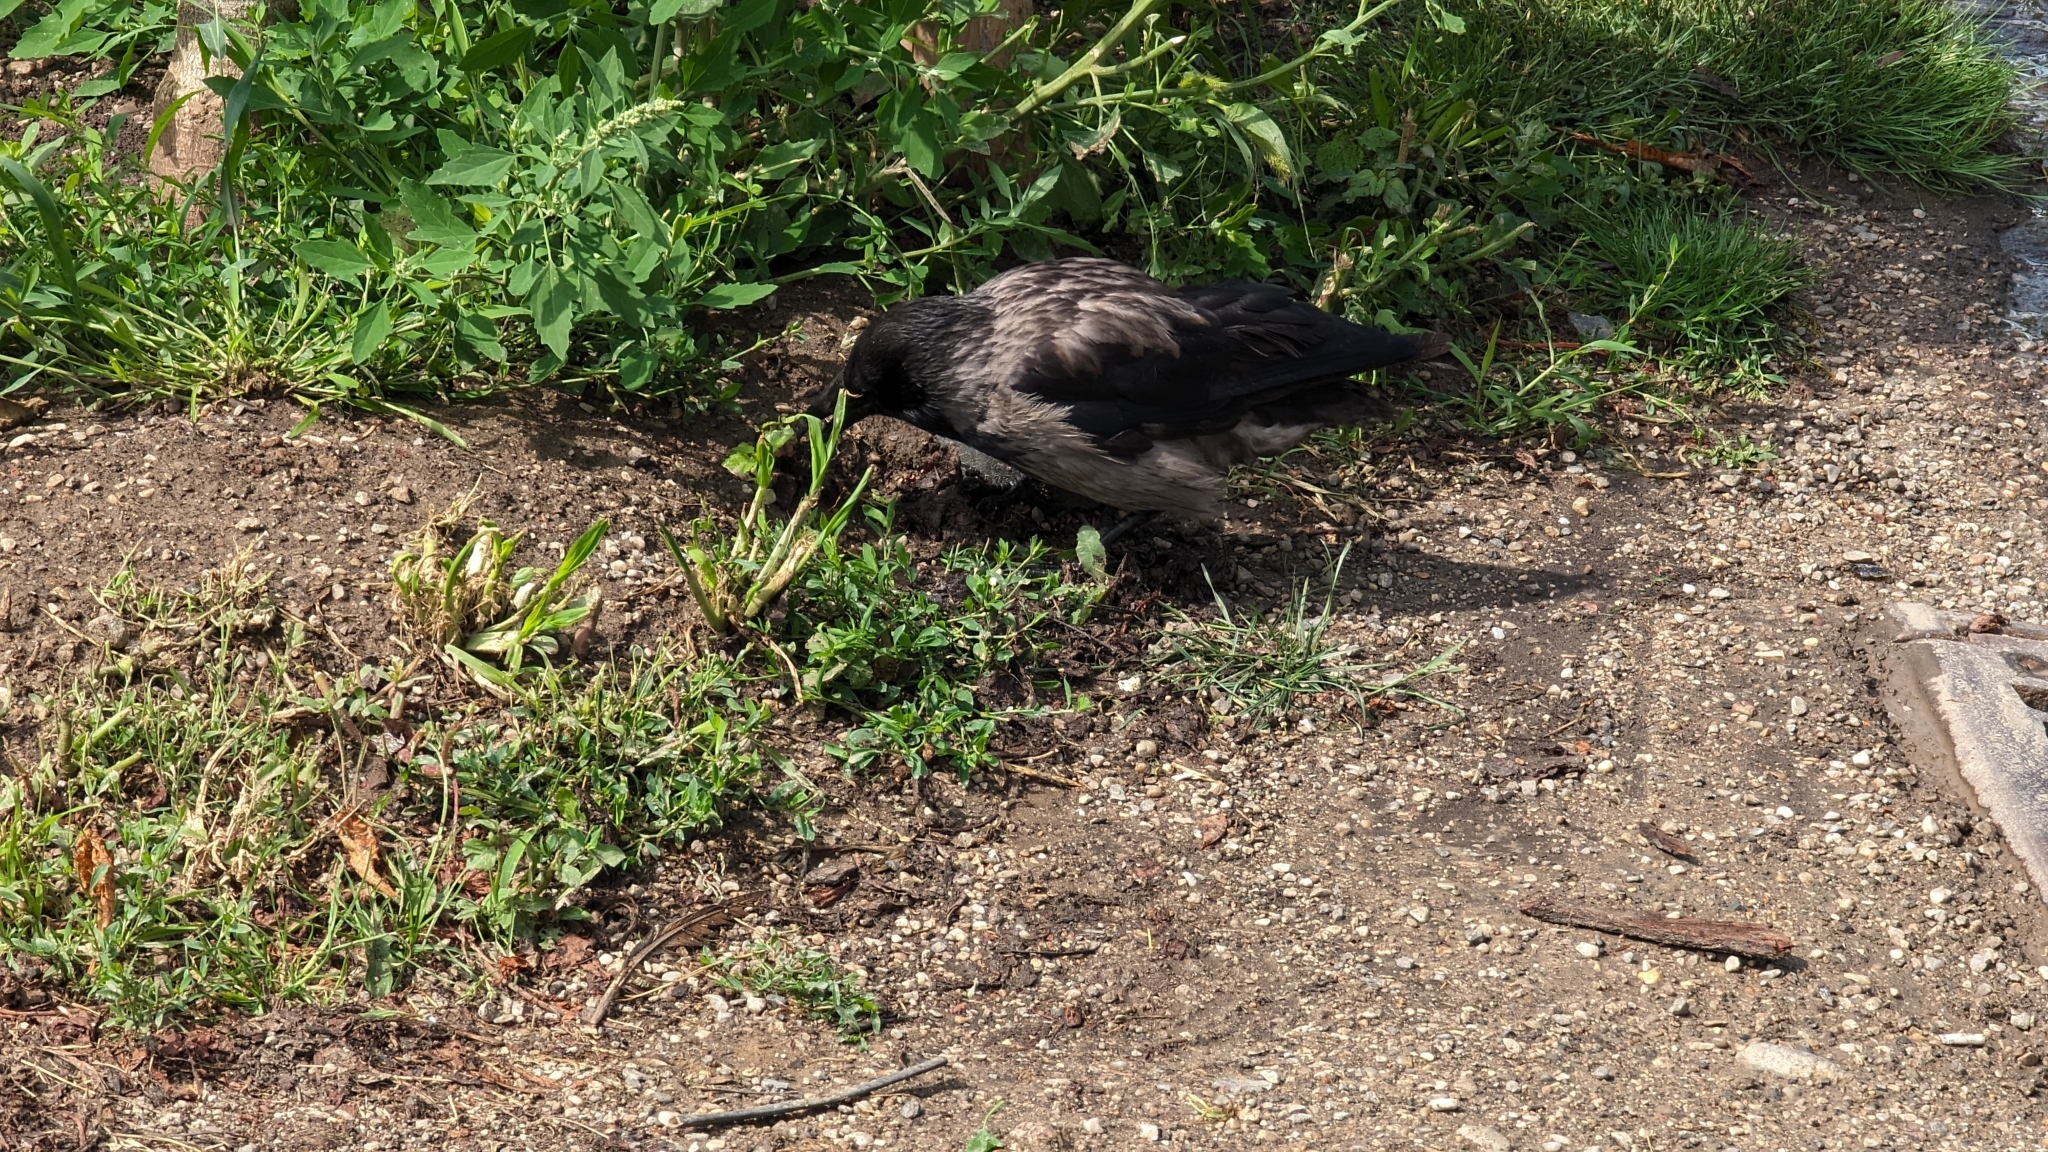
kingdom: Animalia
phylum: Chordata
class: Aves
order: Passeriformes
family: Corvidae
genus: Corvus
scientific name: Corvus
